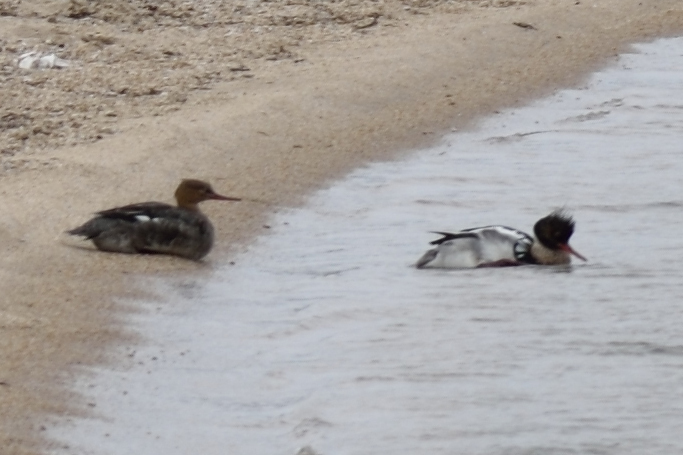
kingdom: Animalia
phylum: Chordata
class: Aves
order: Anseriformes
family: Anatidae
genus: Mergus
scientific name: Mergus serrator
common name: Red-breasted merganser
